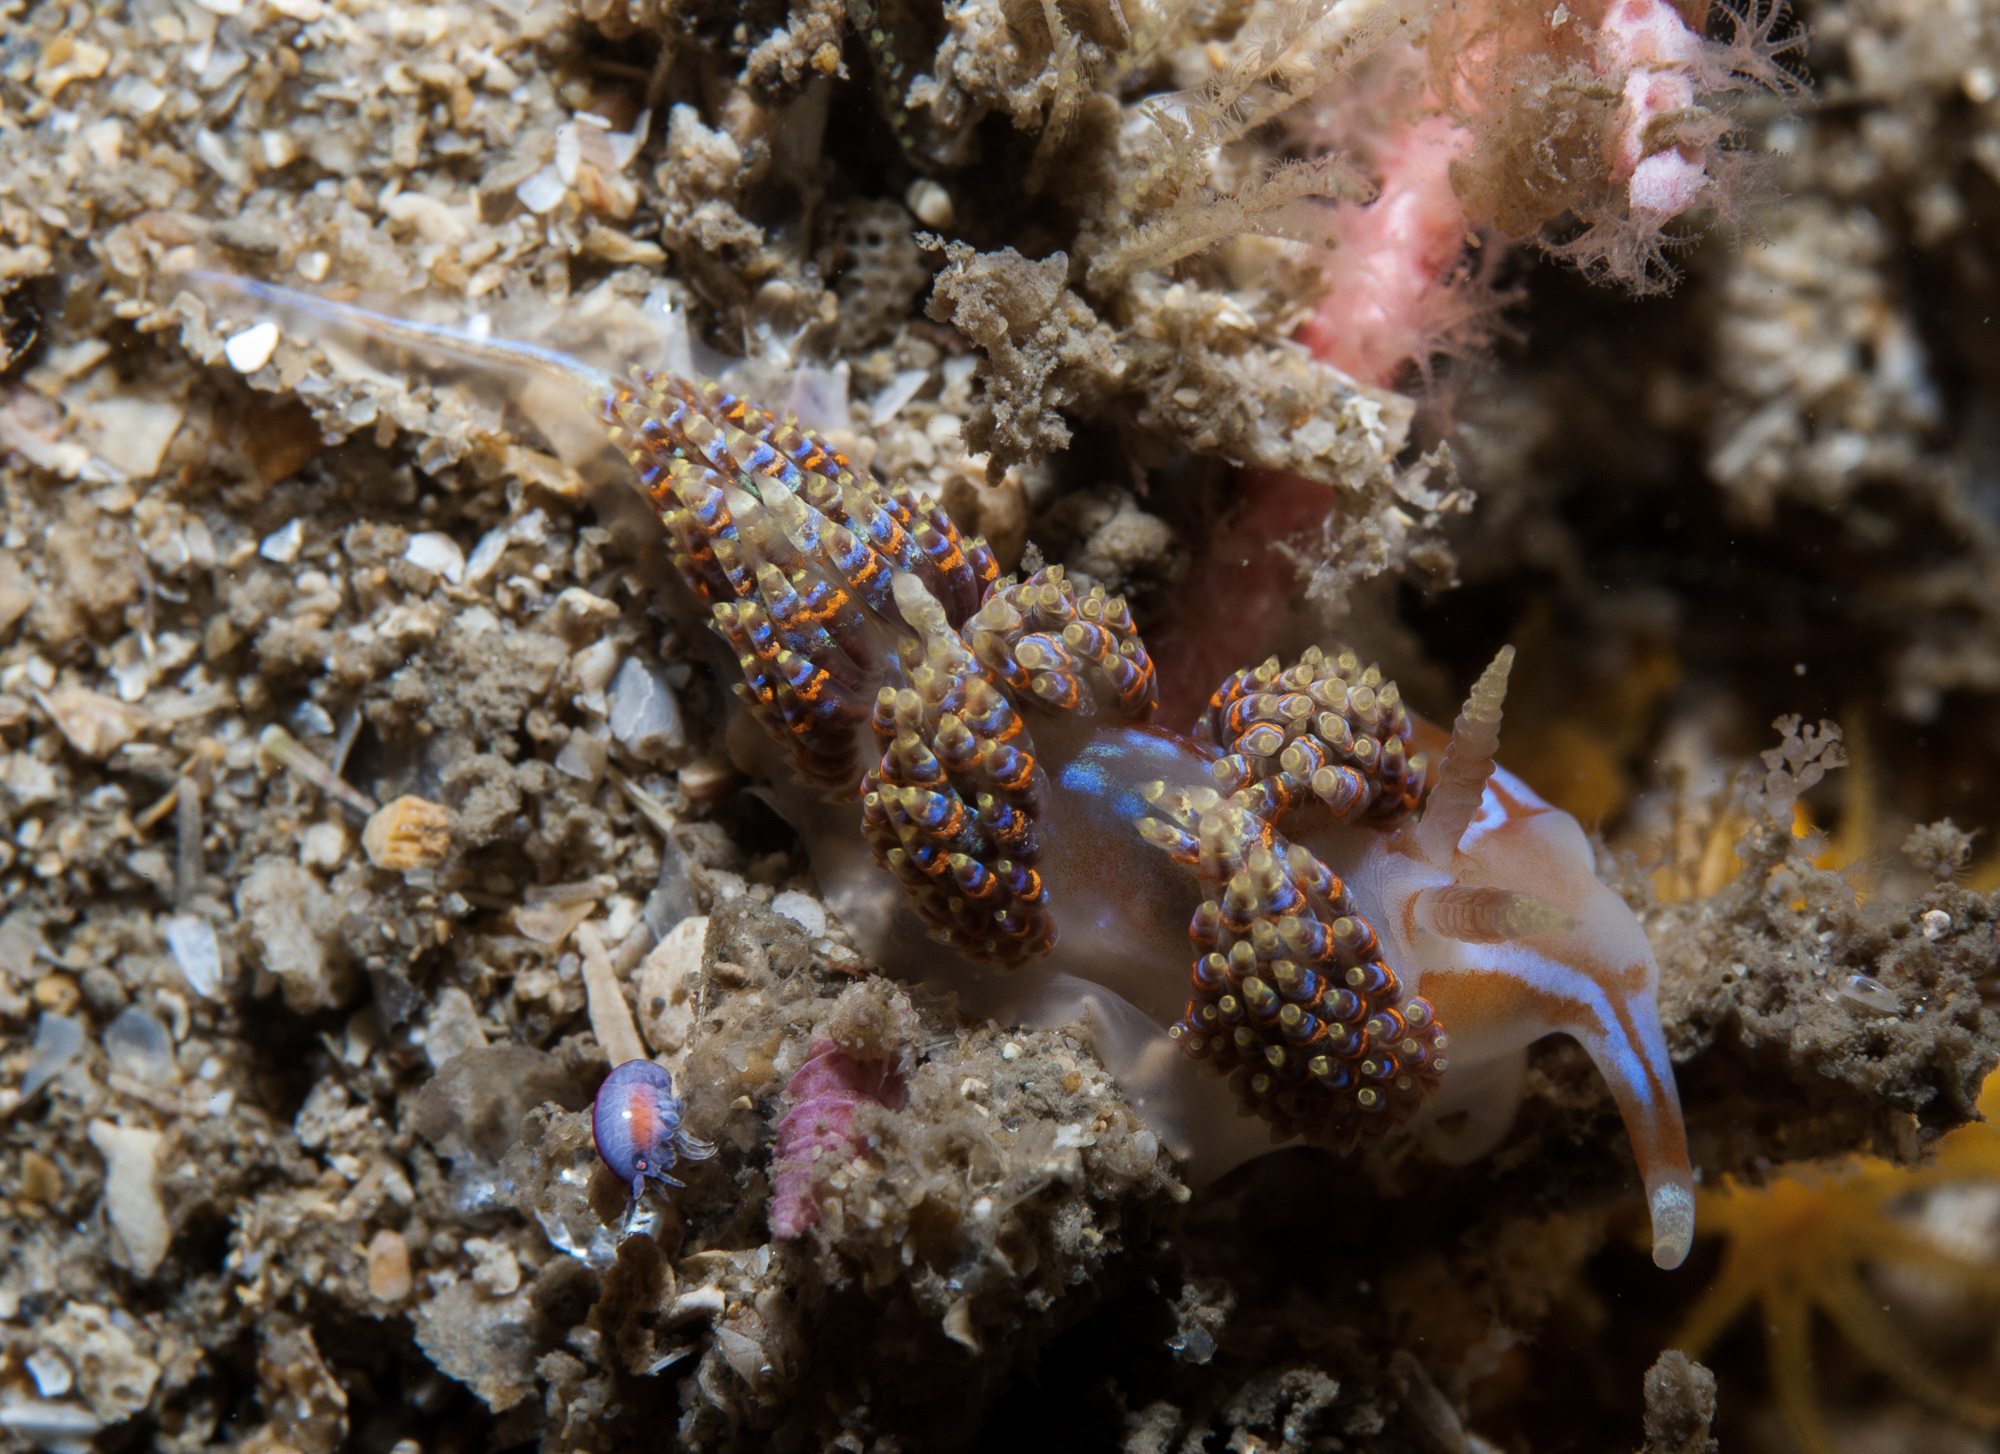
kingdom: Animalia
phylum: Mollusca
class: Gastropoda
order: Nudibranchia
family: Myrrhinidae
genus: Godiva
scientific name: Godiva quadricolor
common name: Four-colour nudibranch
